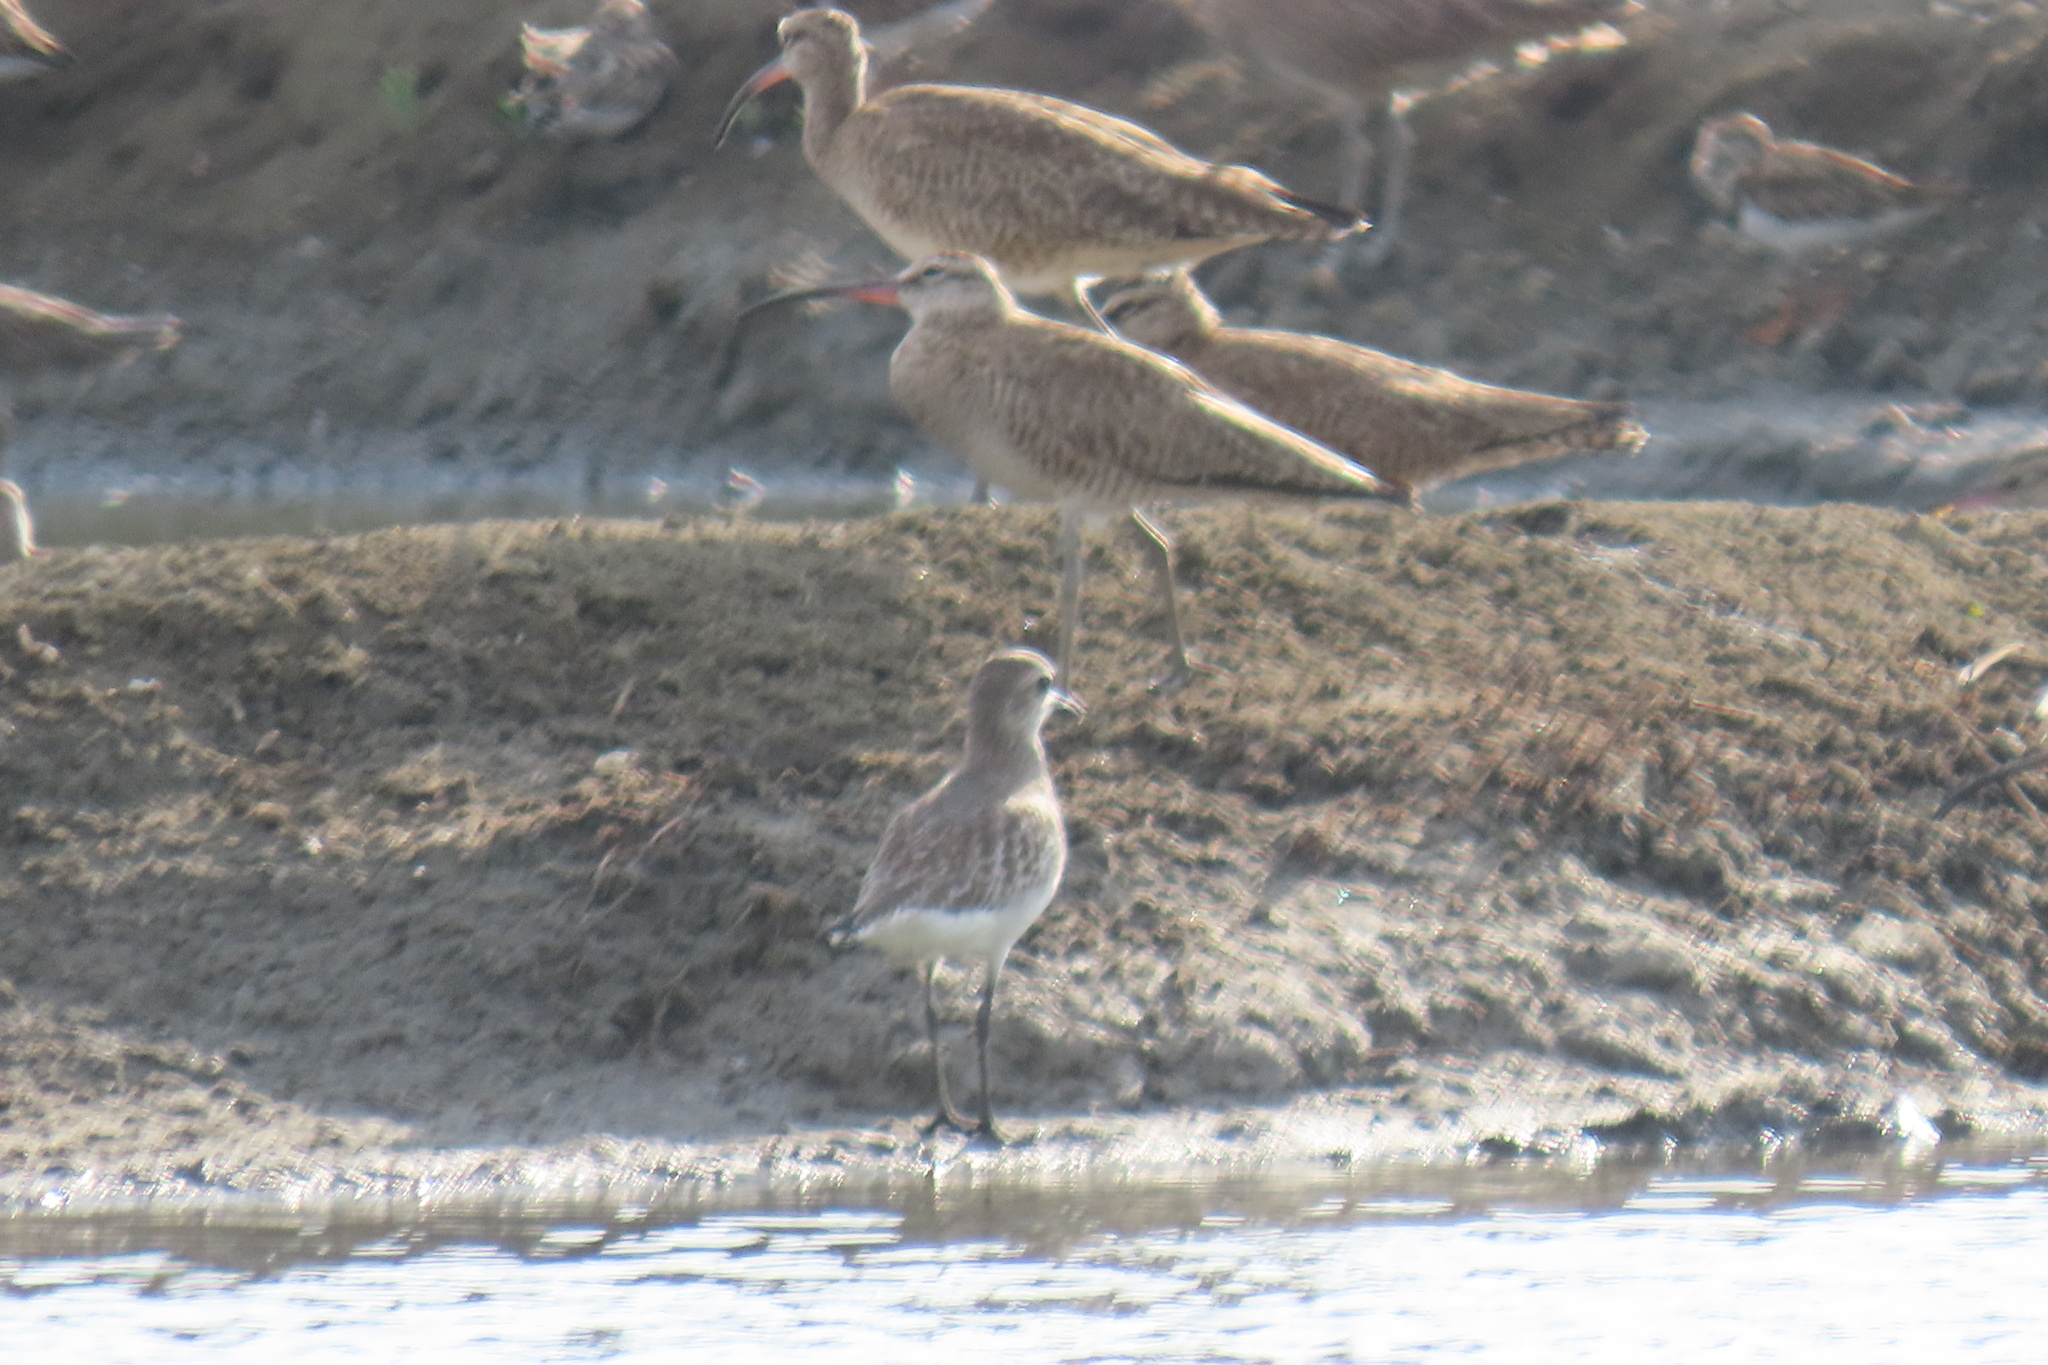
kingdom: Animalia
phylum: Chordata
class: Aves
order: Charadriiformes
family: Scolopacidae
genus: Numenius
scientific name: Numenius phaeopus
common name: Whimbrel
